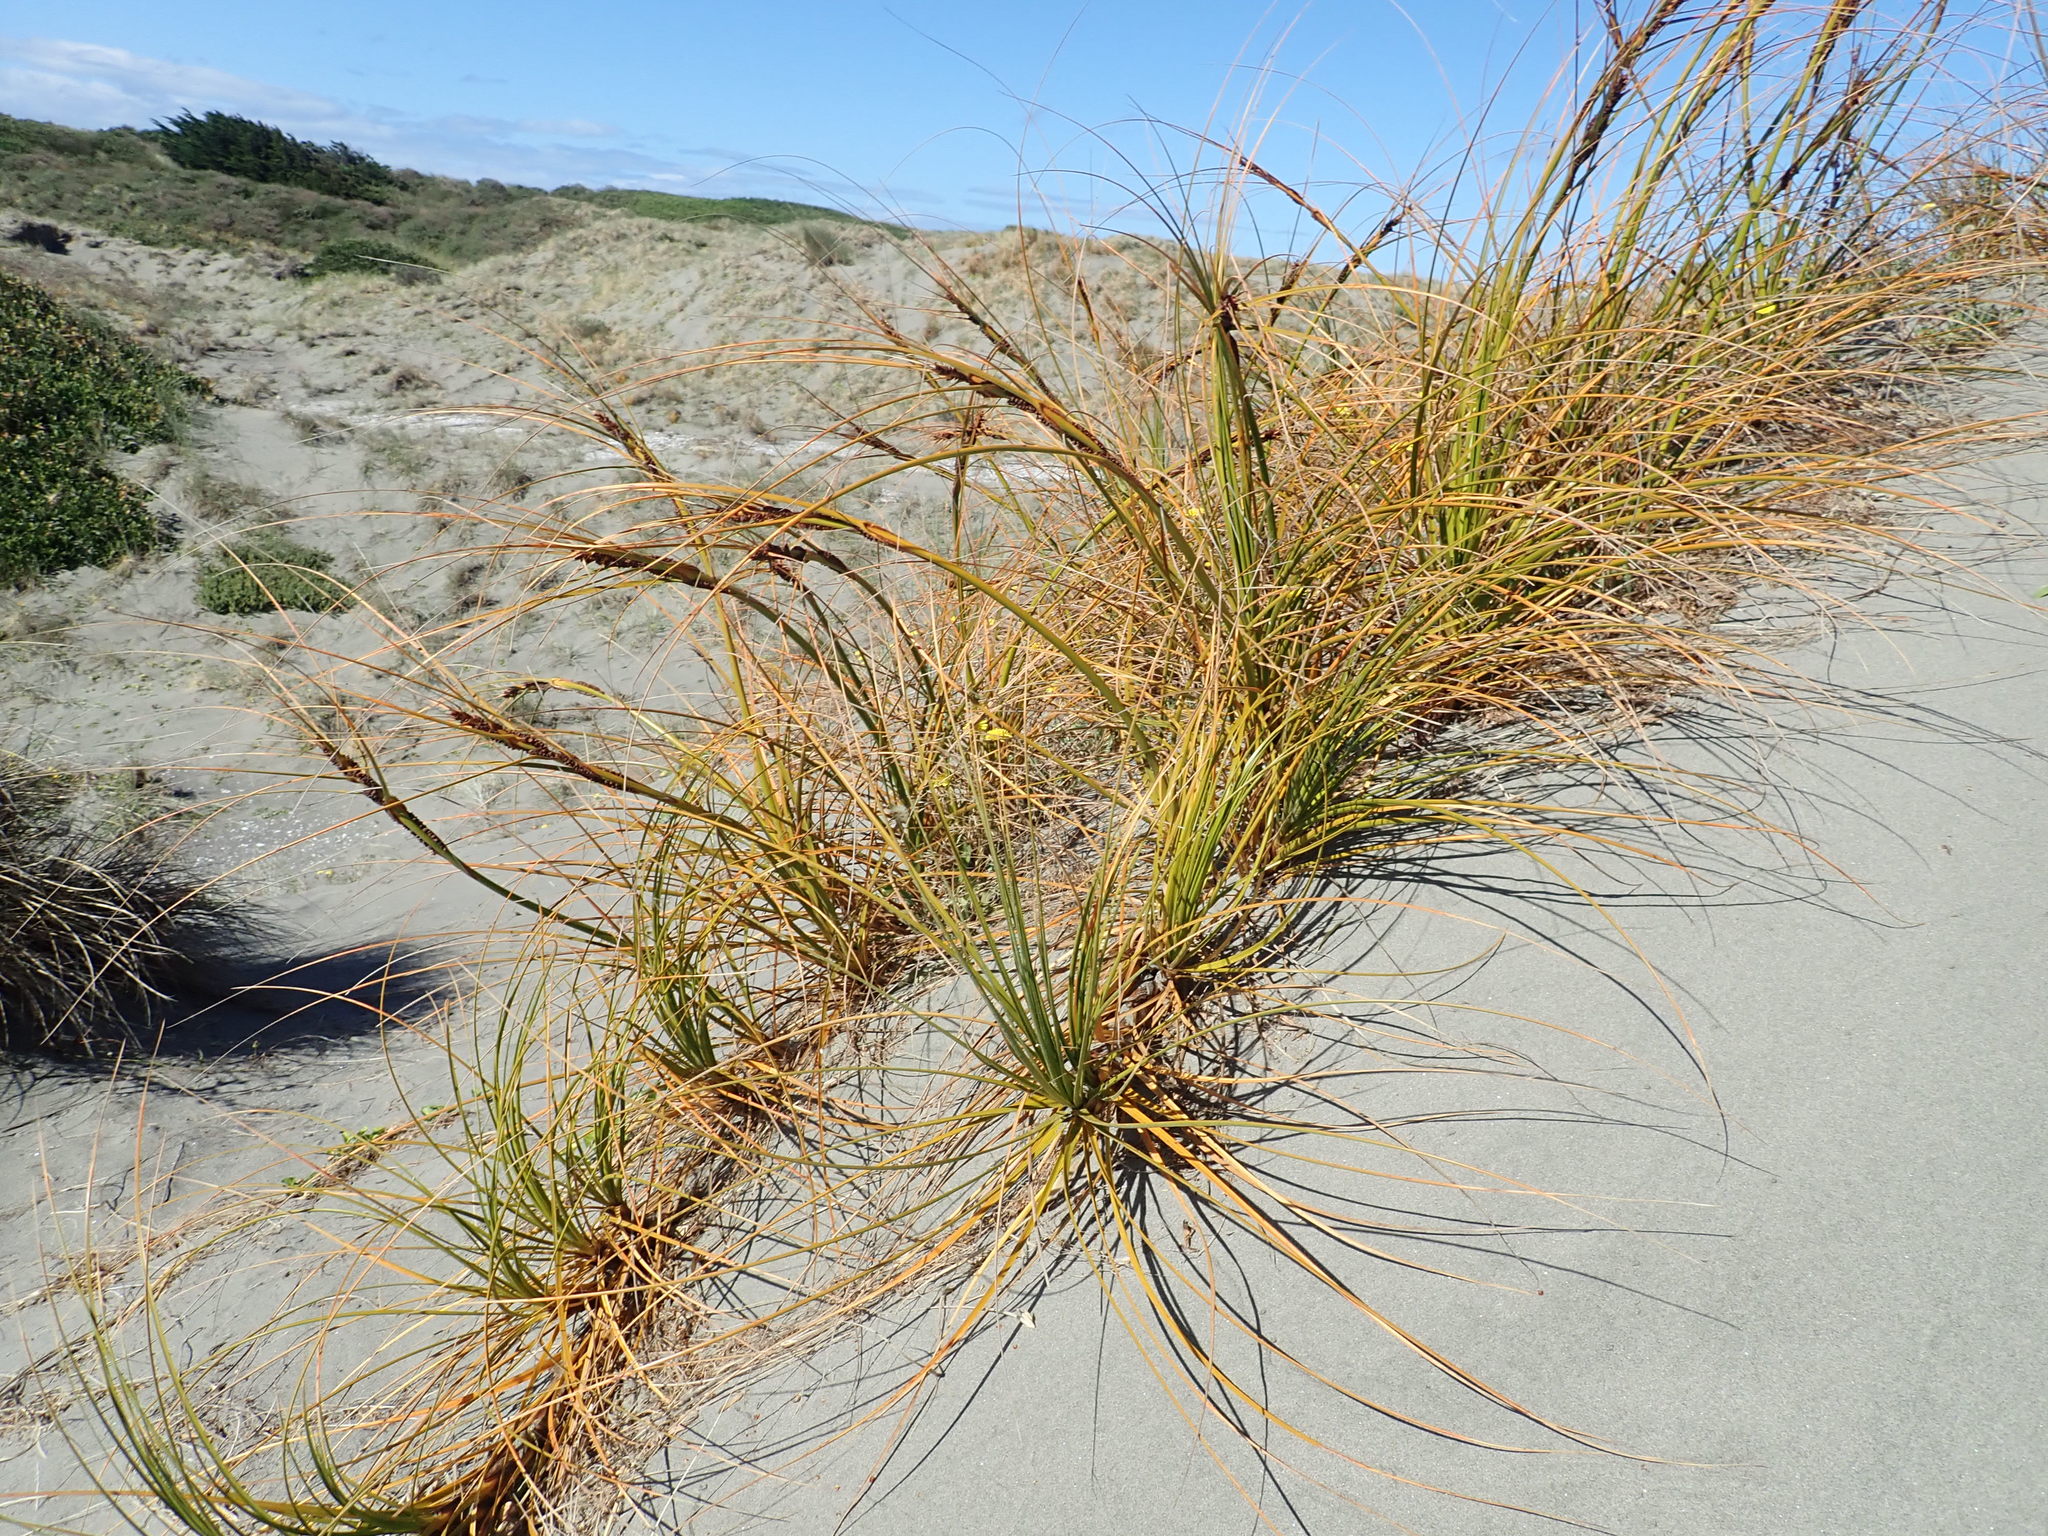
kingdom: Plantae
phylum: Tracheophyta
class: Liliopsida
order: Poales
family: Cyperaceae
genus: Ficinia
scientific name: Ficinia spiralis
